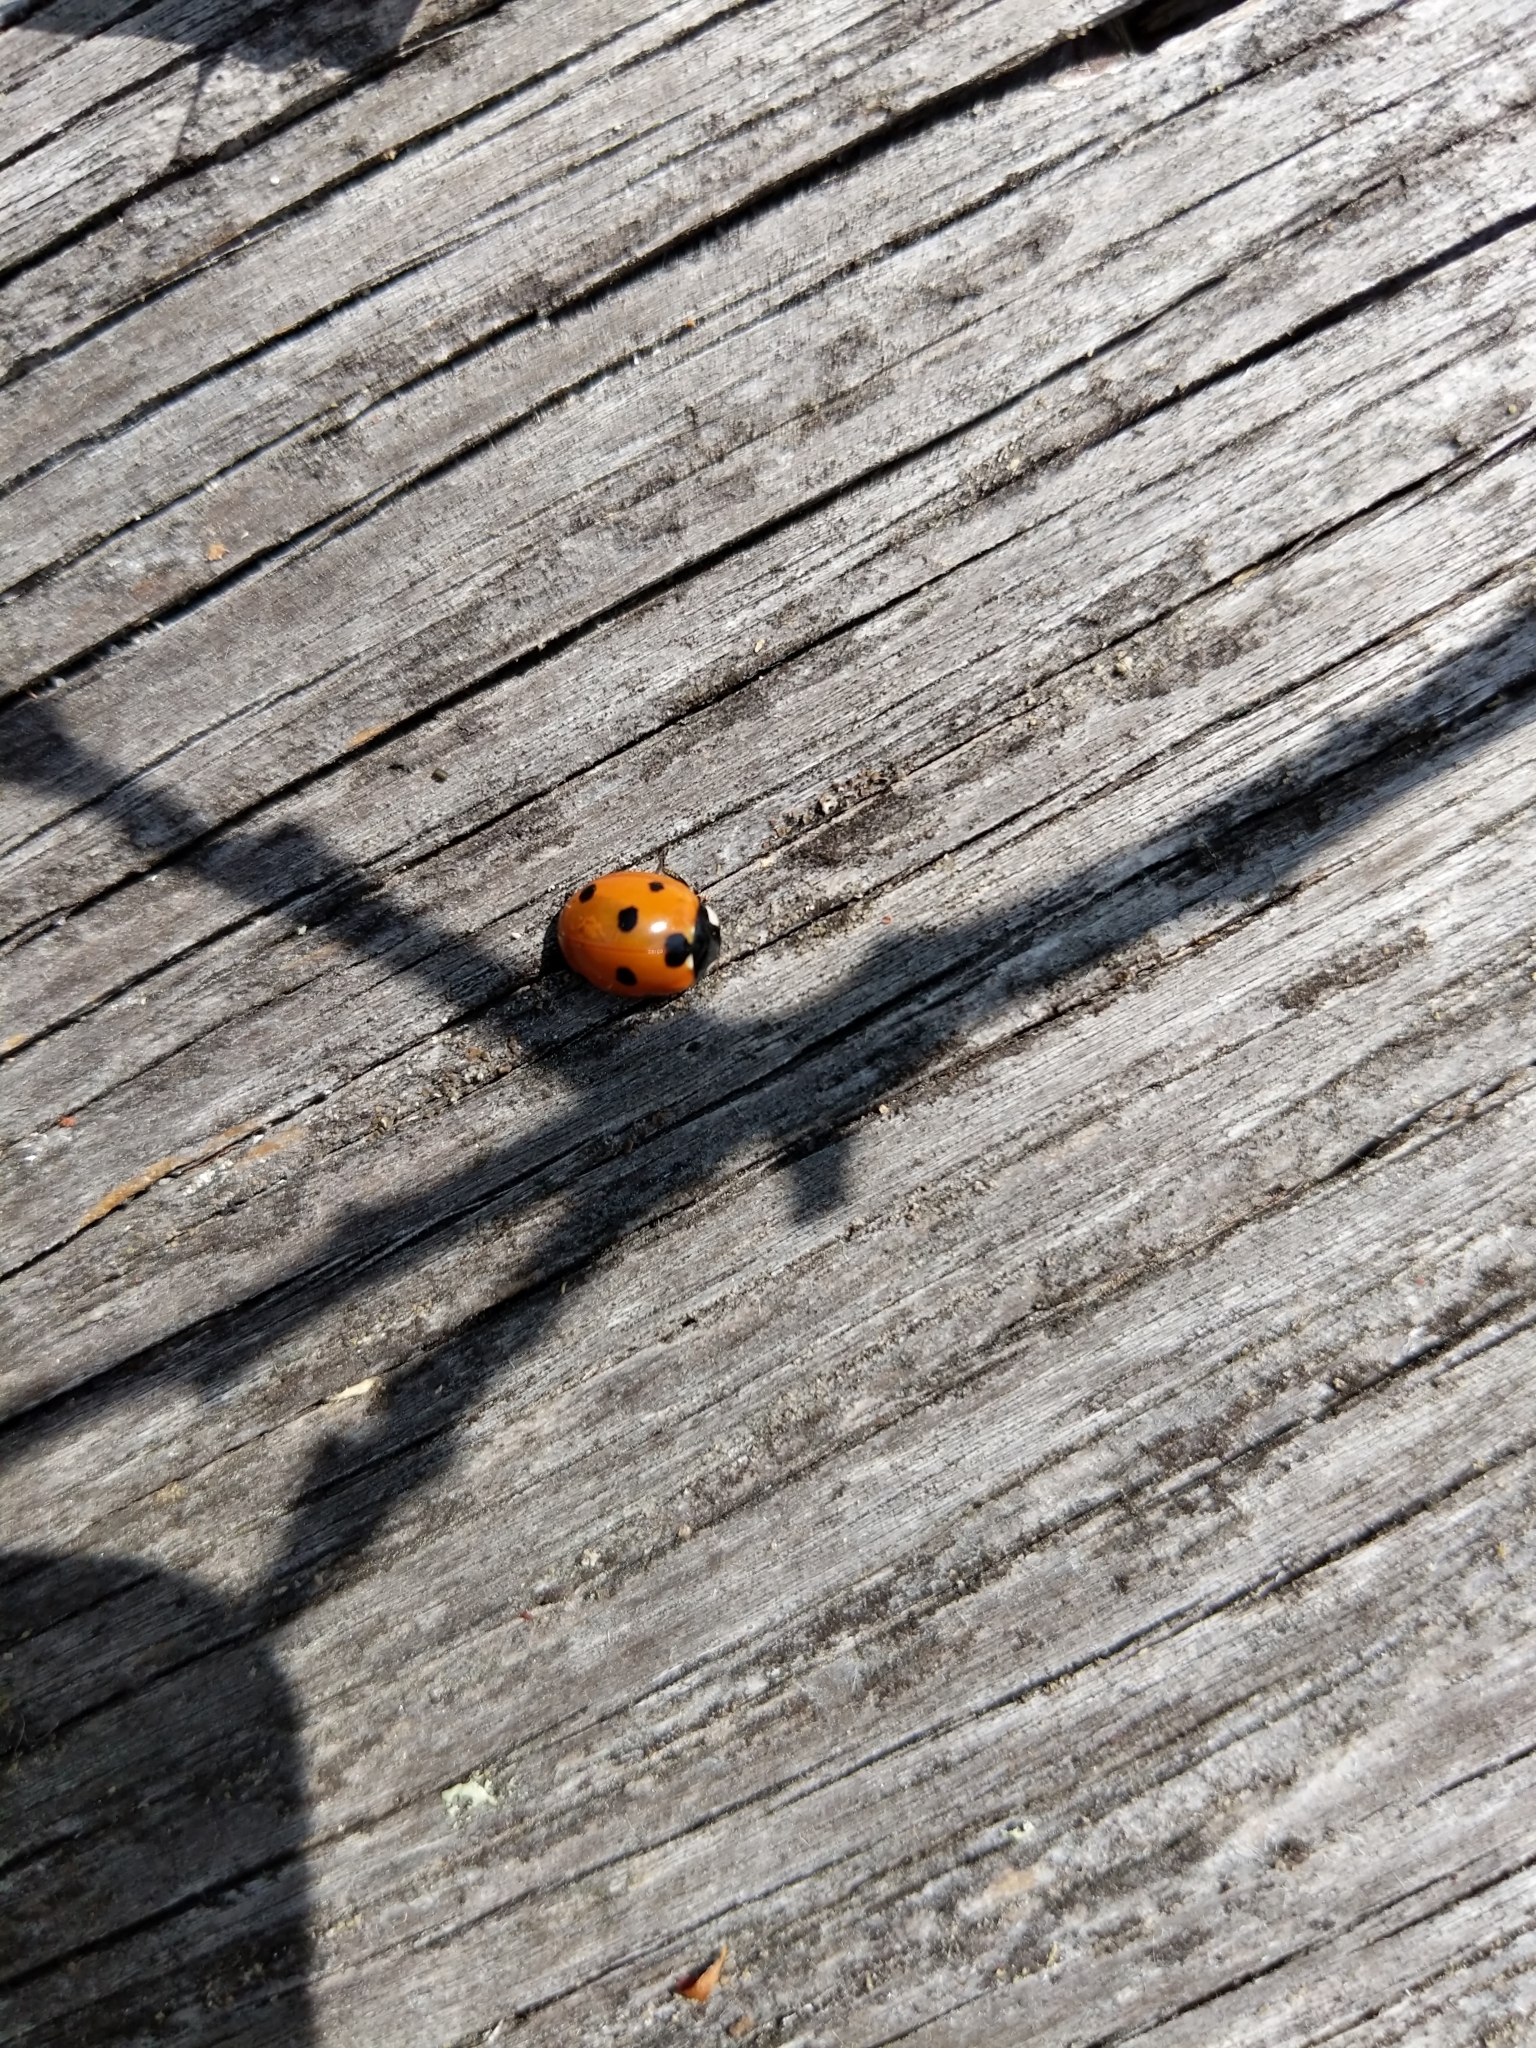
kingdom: Animalia
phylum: Arthropoda
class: Insecta
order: Coleoptera
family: Coccinellidae
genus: Coccinella
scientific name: Coccinella septempunctata
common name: Sevenspotted lady beetle
